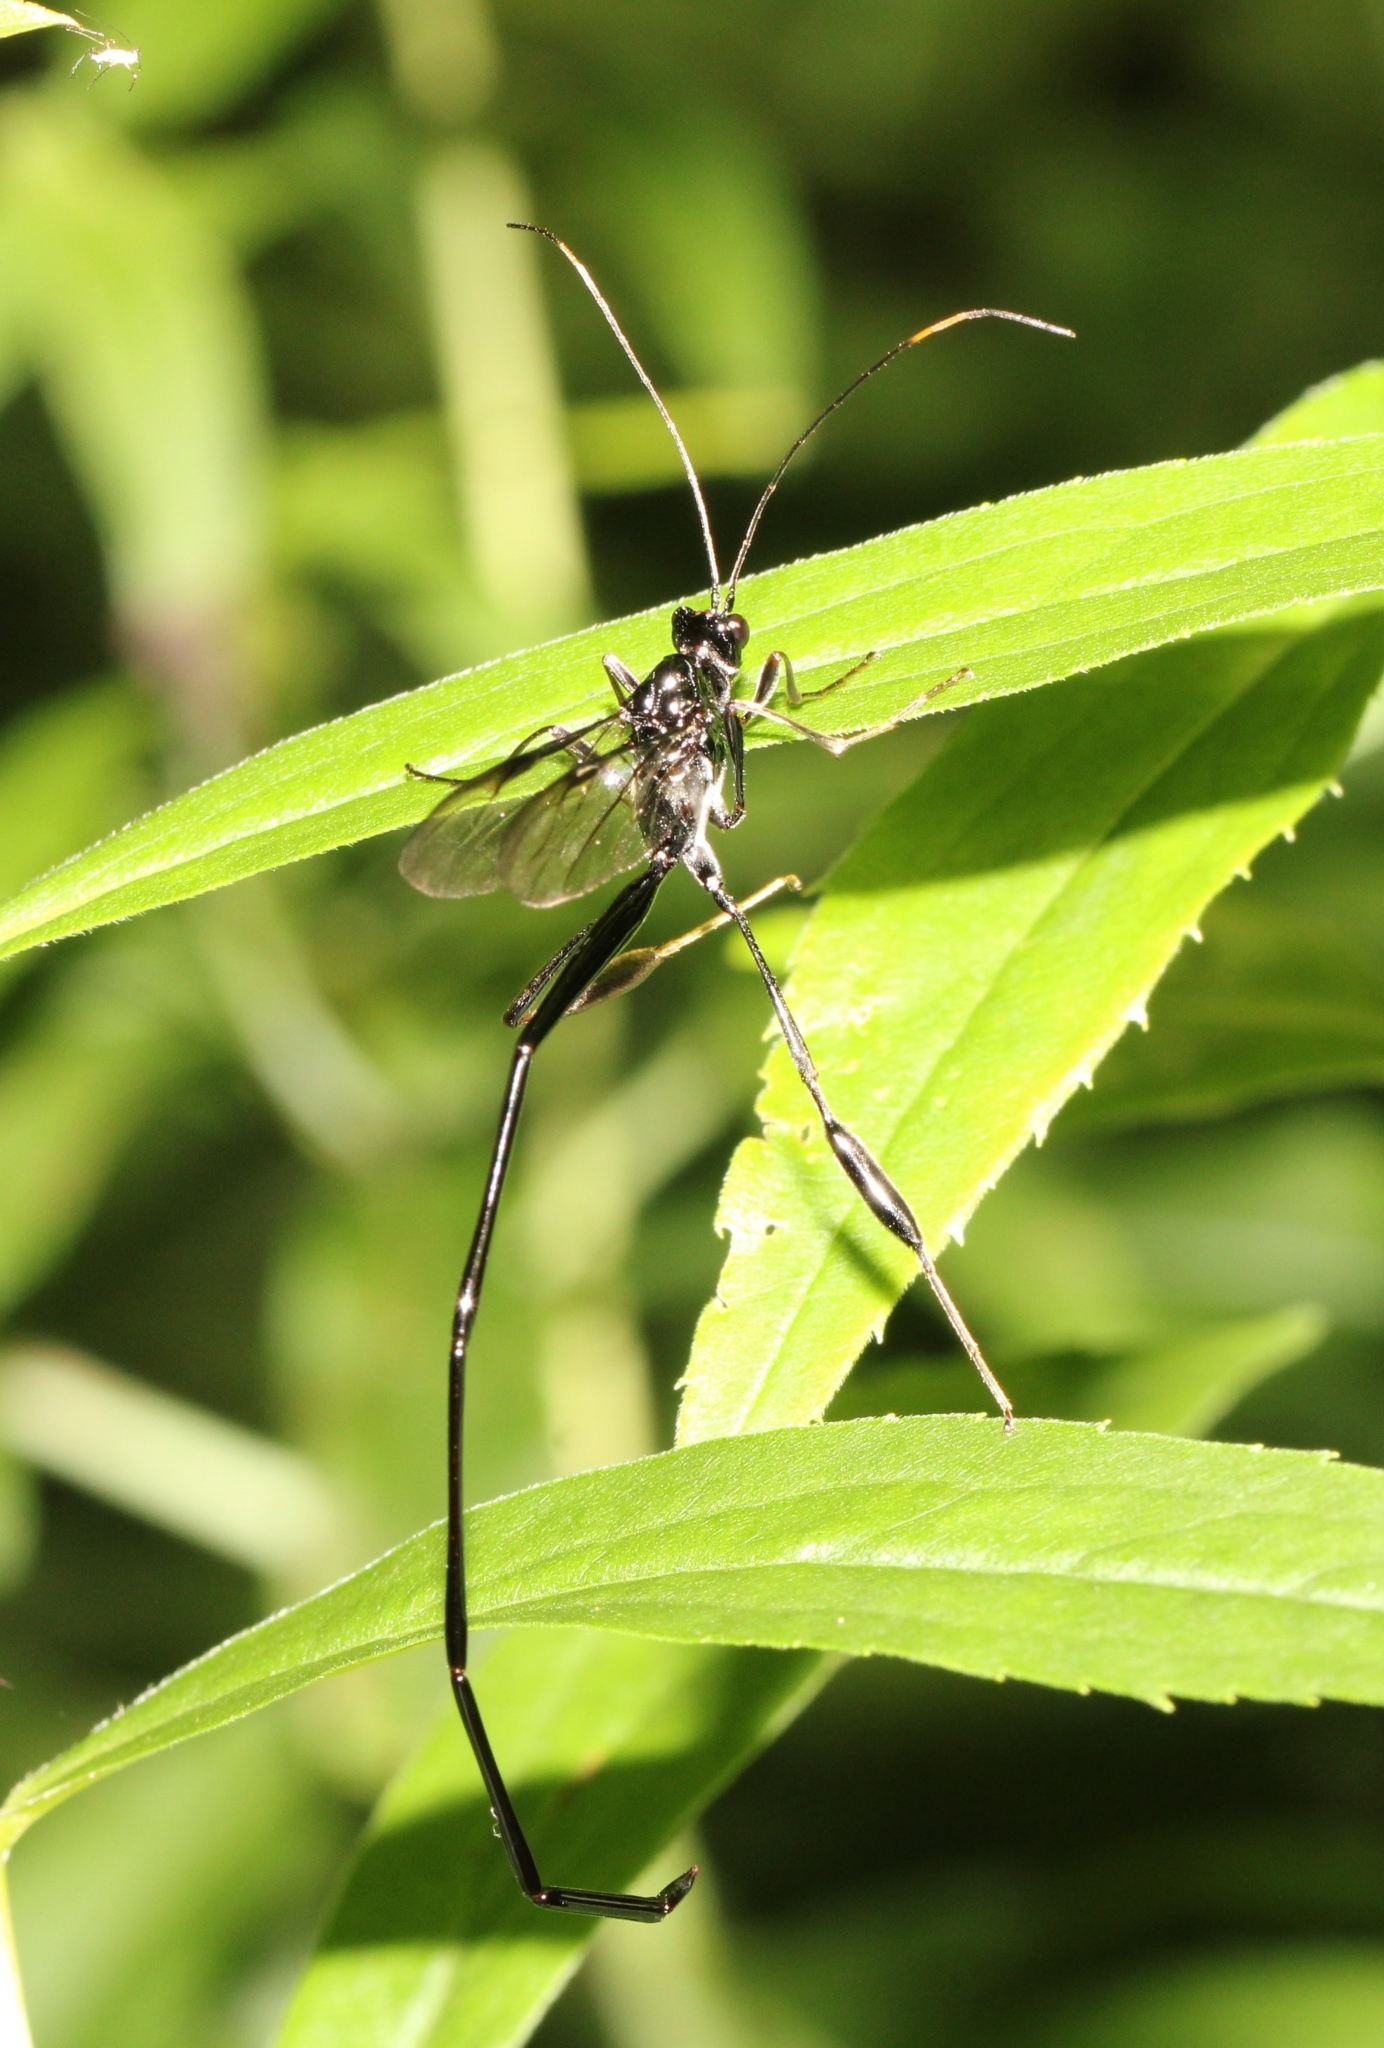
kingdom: Animalia
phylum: Arthropoda
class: Insecta
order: Hymenoptera
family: Pelecinidae
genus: Pelecinus
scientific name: Pelecinus polyturator
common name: American pelecinid wasp
